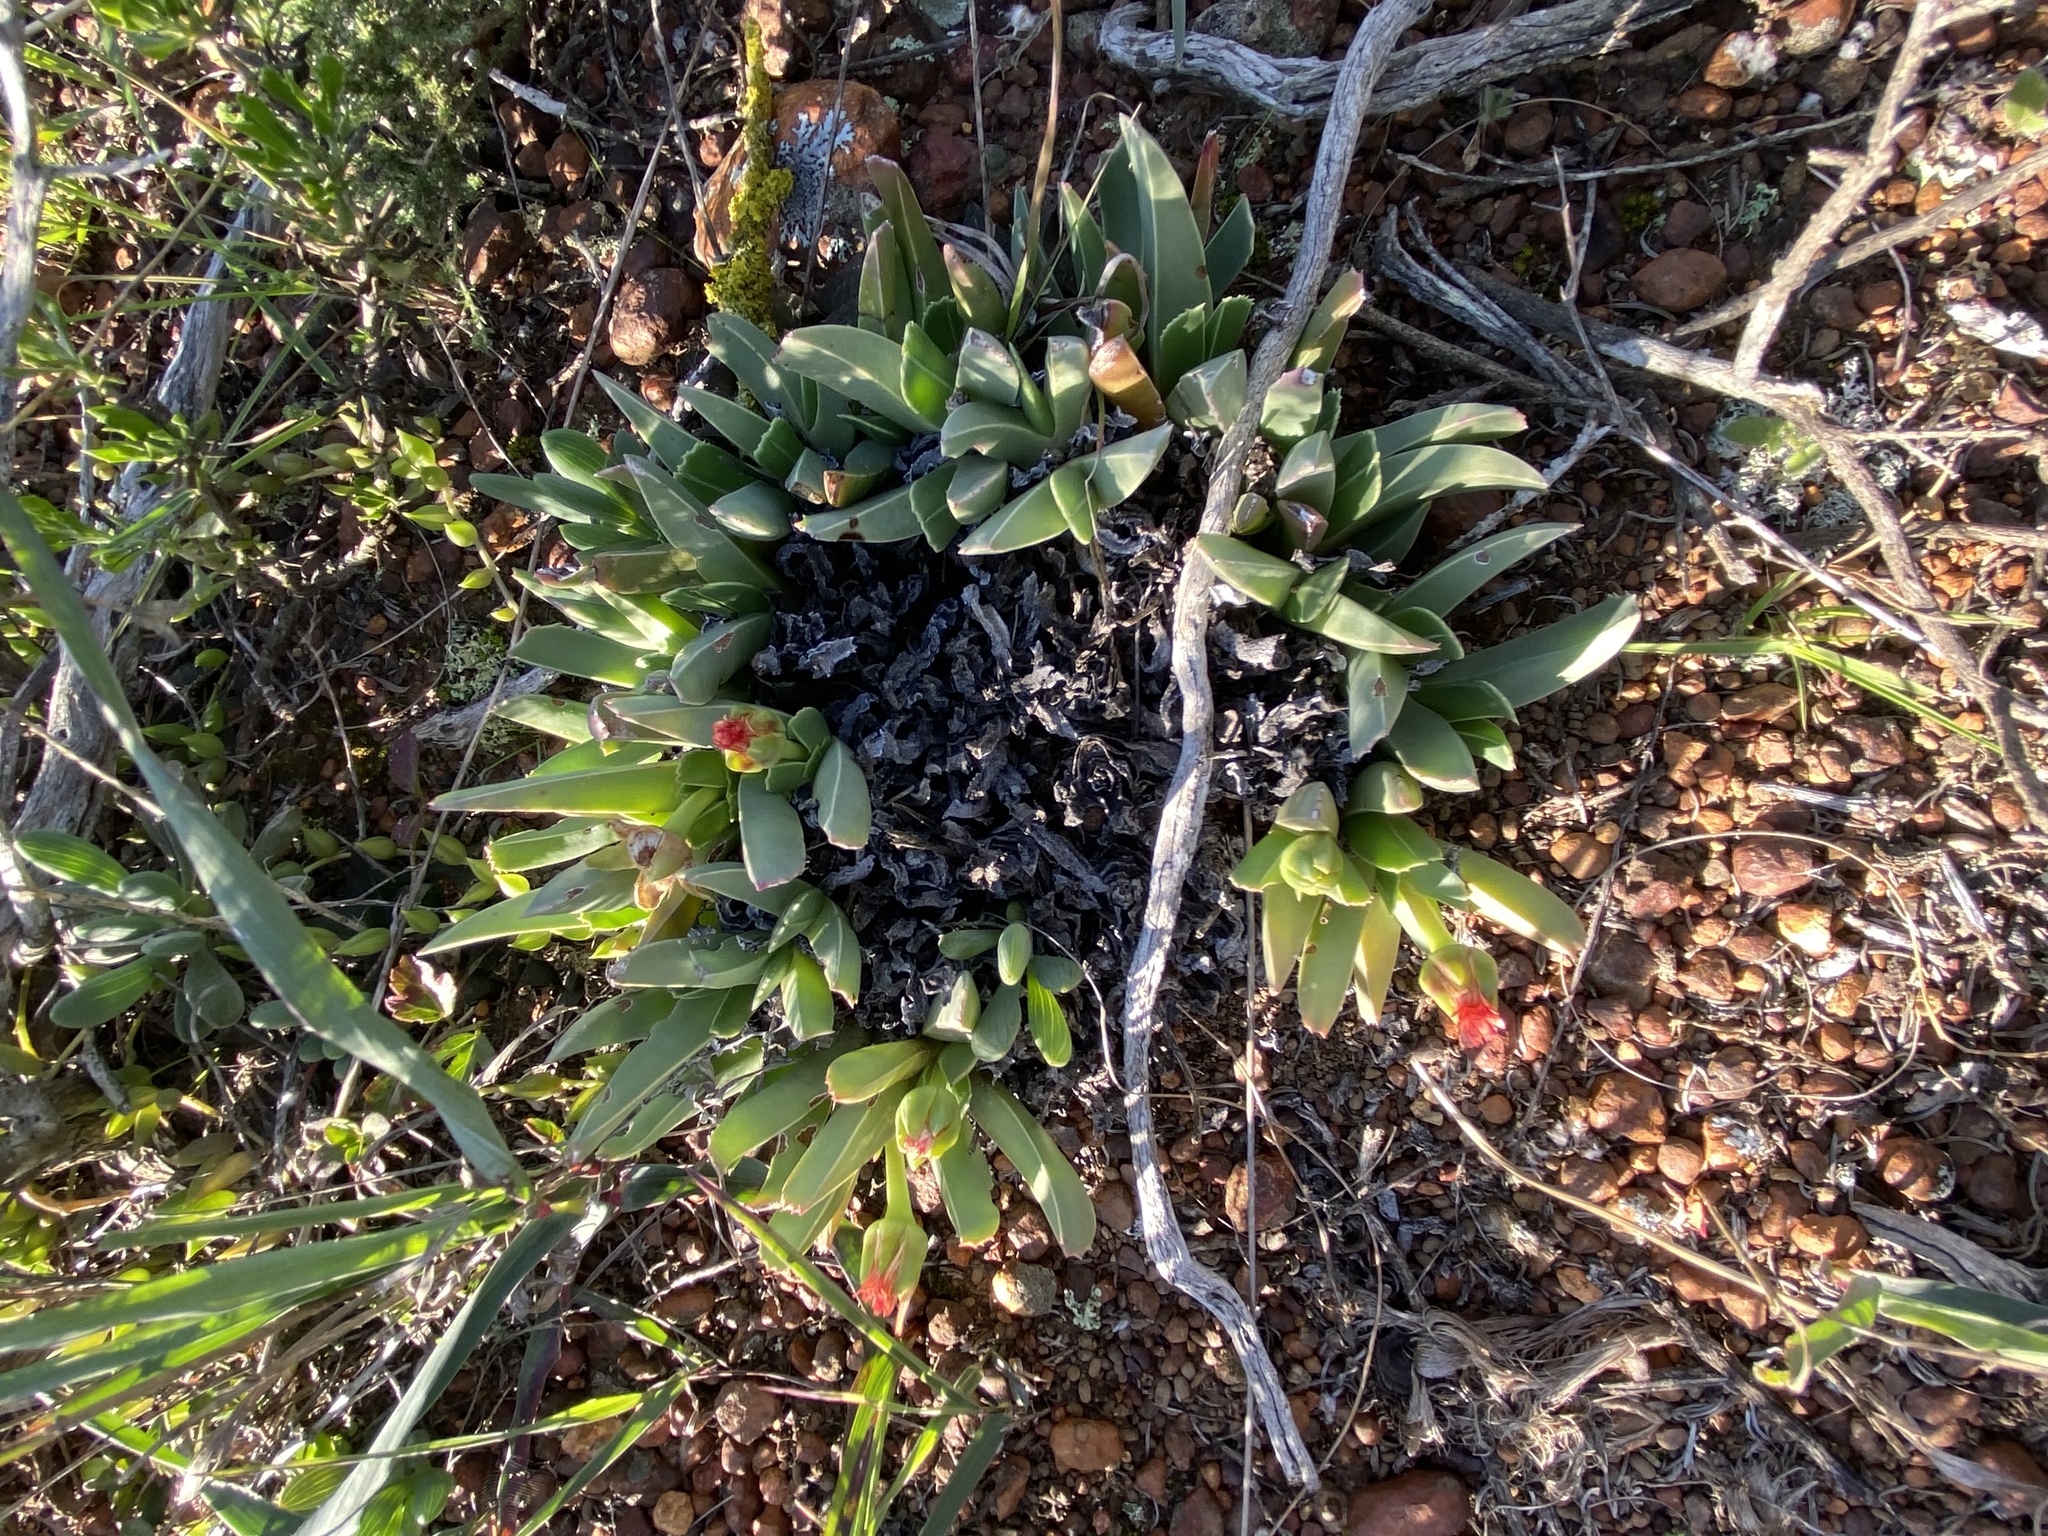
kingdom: Plantae
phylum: Tracheophyta
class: Magnoliopsida
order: Caryophyllales
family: Aizoaceae
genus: Acrodon
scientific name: Acrodon bellidiflorus
